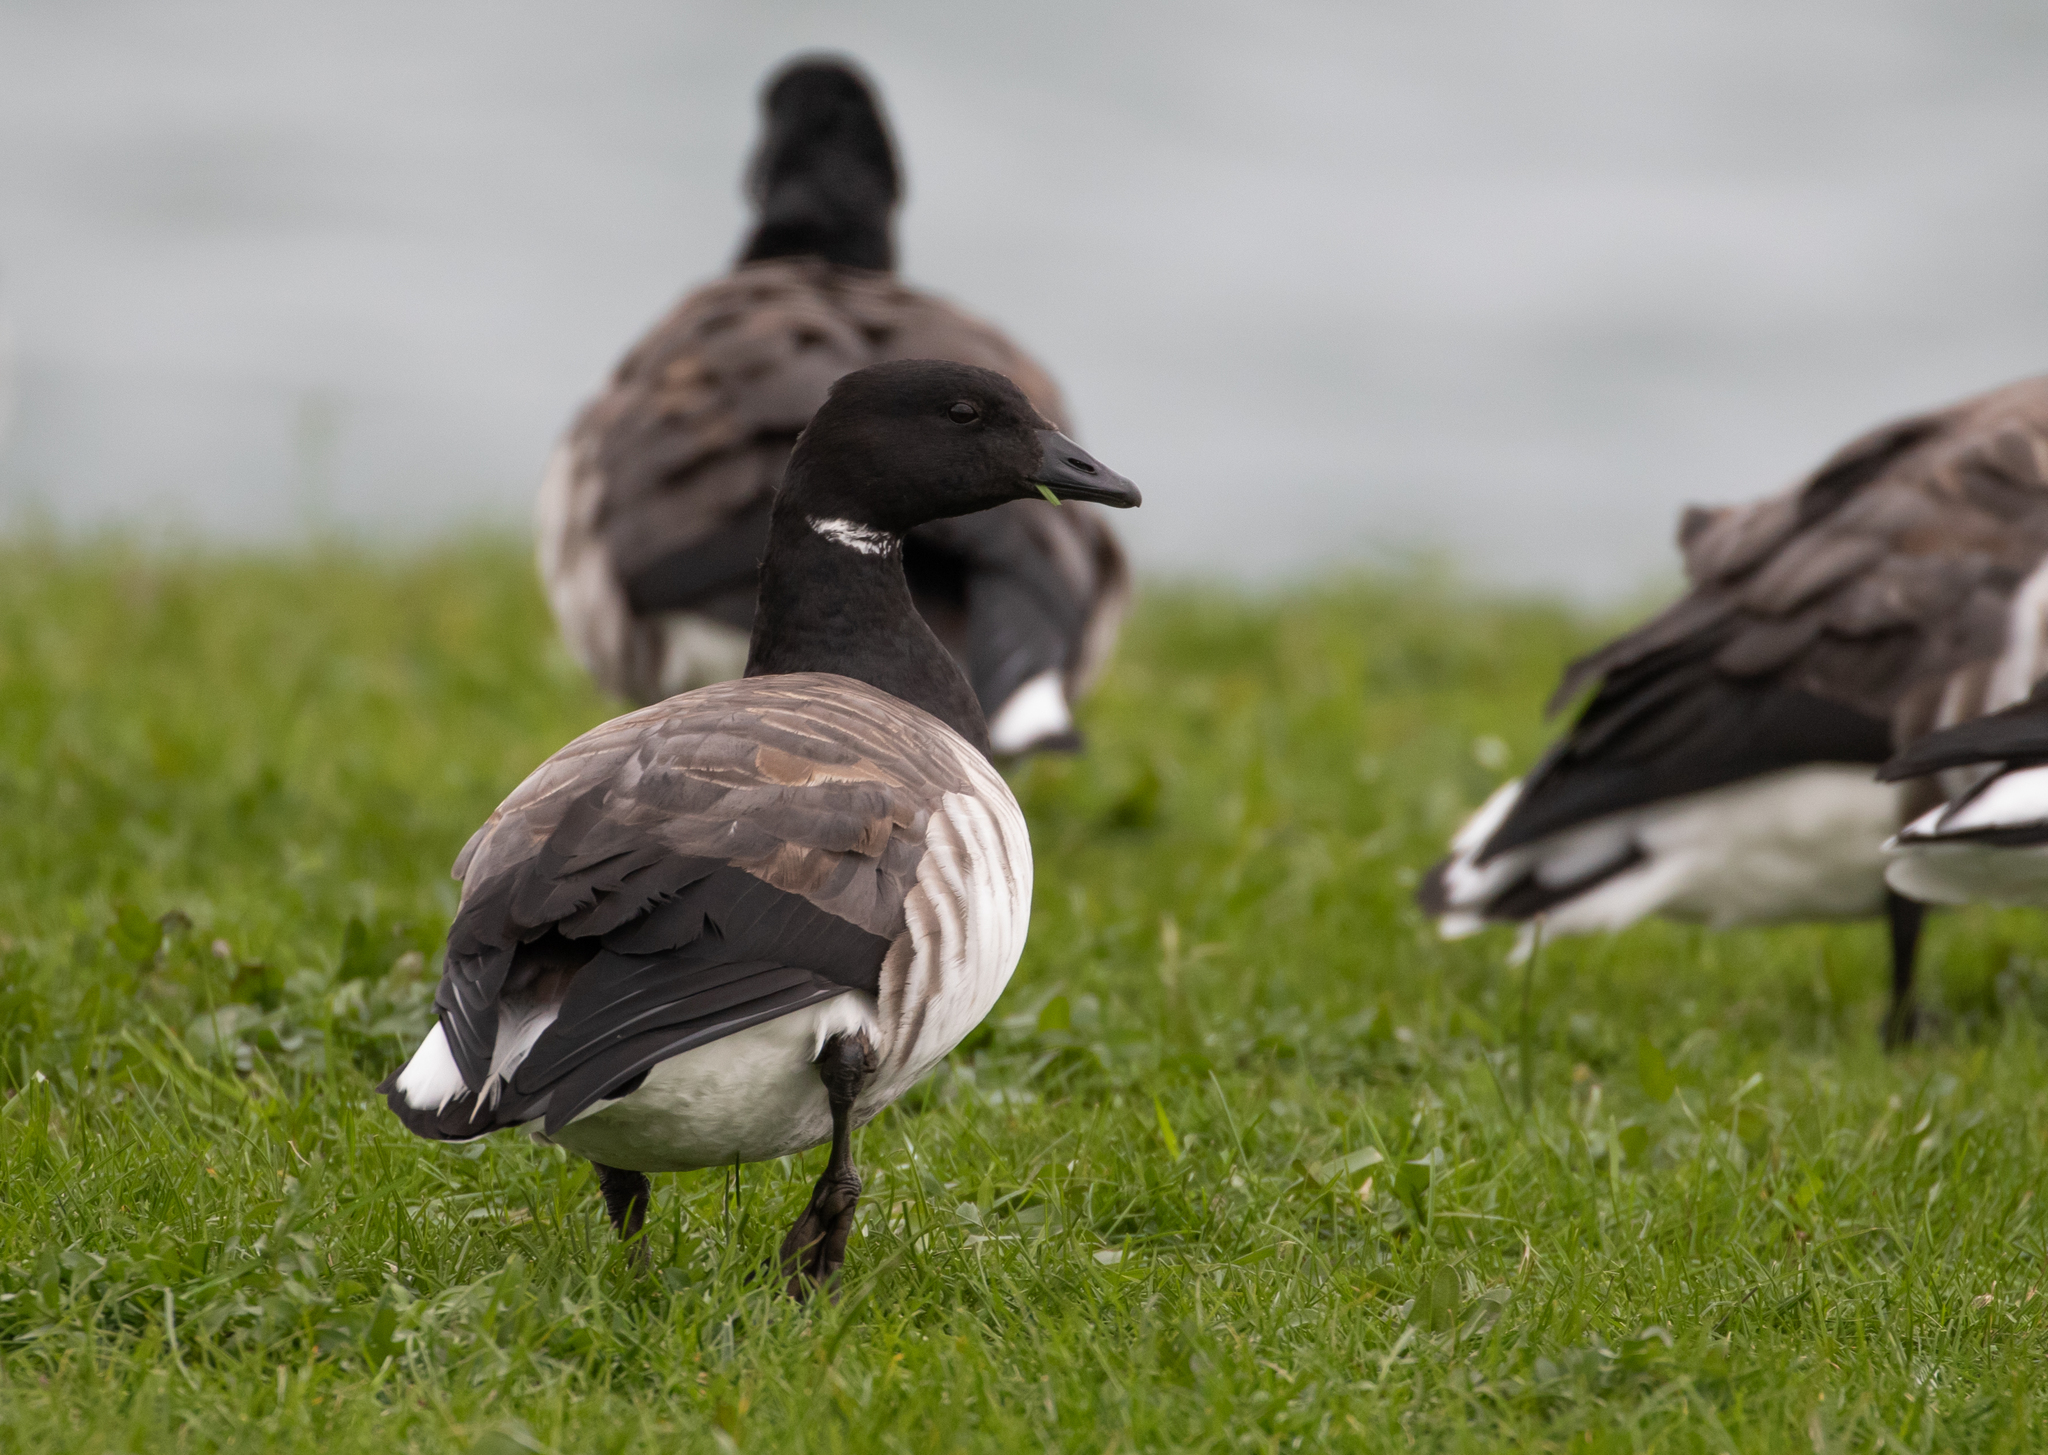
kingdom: Animalia
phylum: Chordata
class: Aves
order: Anseriformes
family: Anatidae
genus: Branta
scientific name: Branta bernicla
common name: Brant goose
